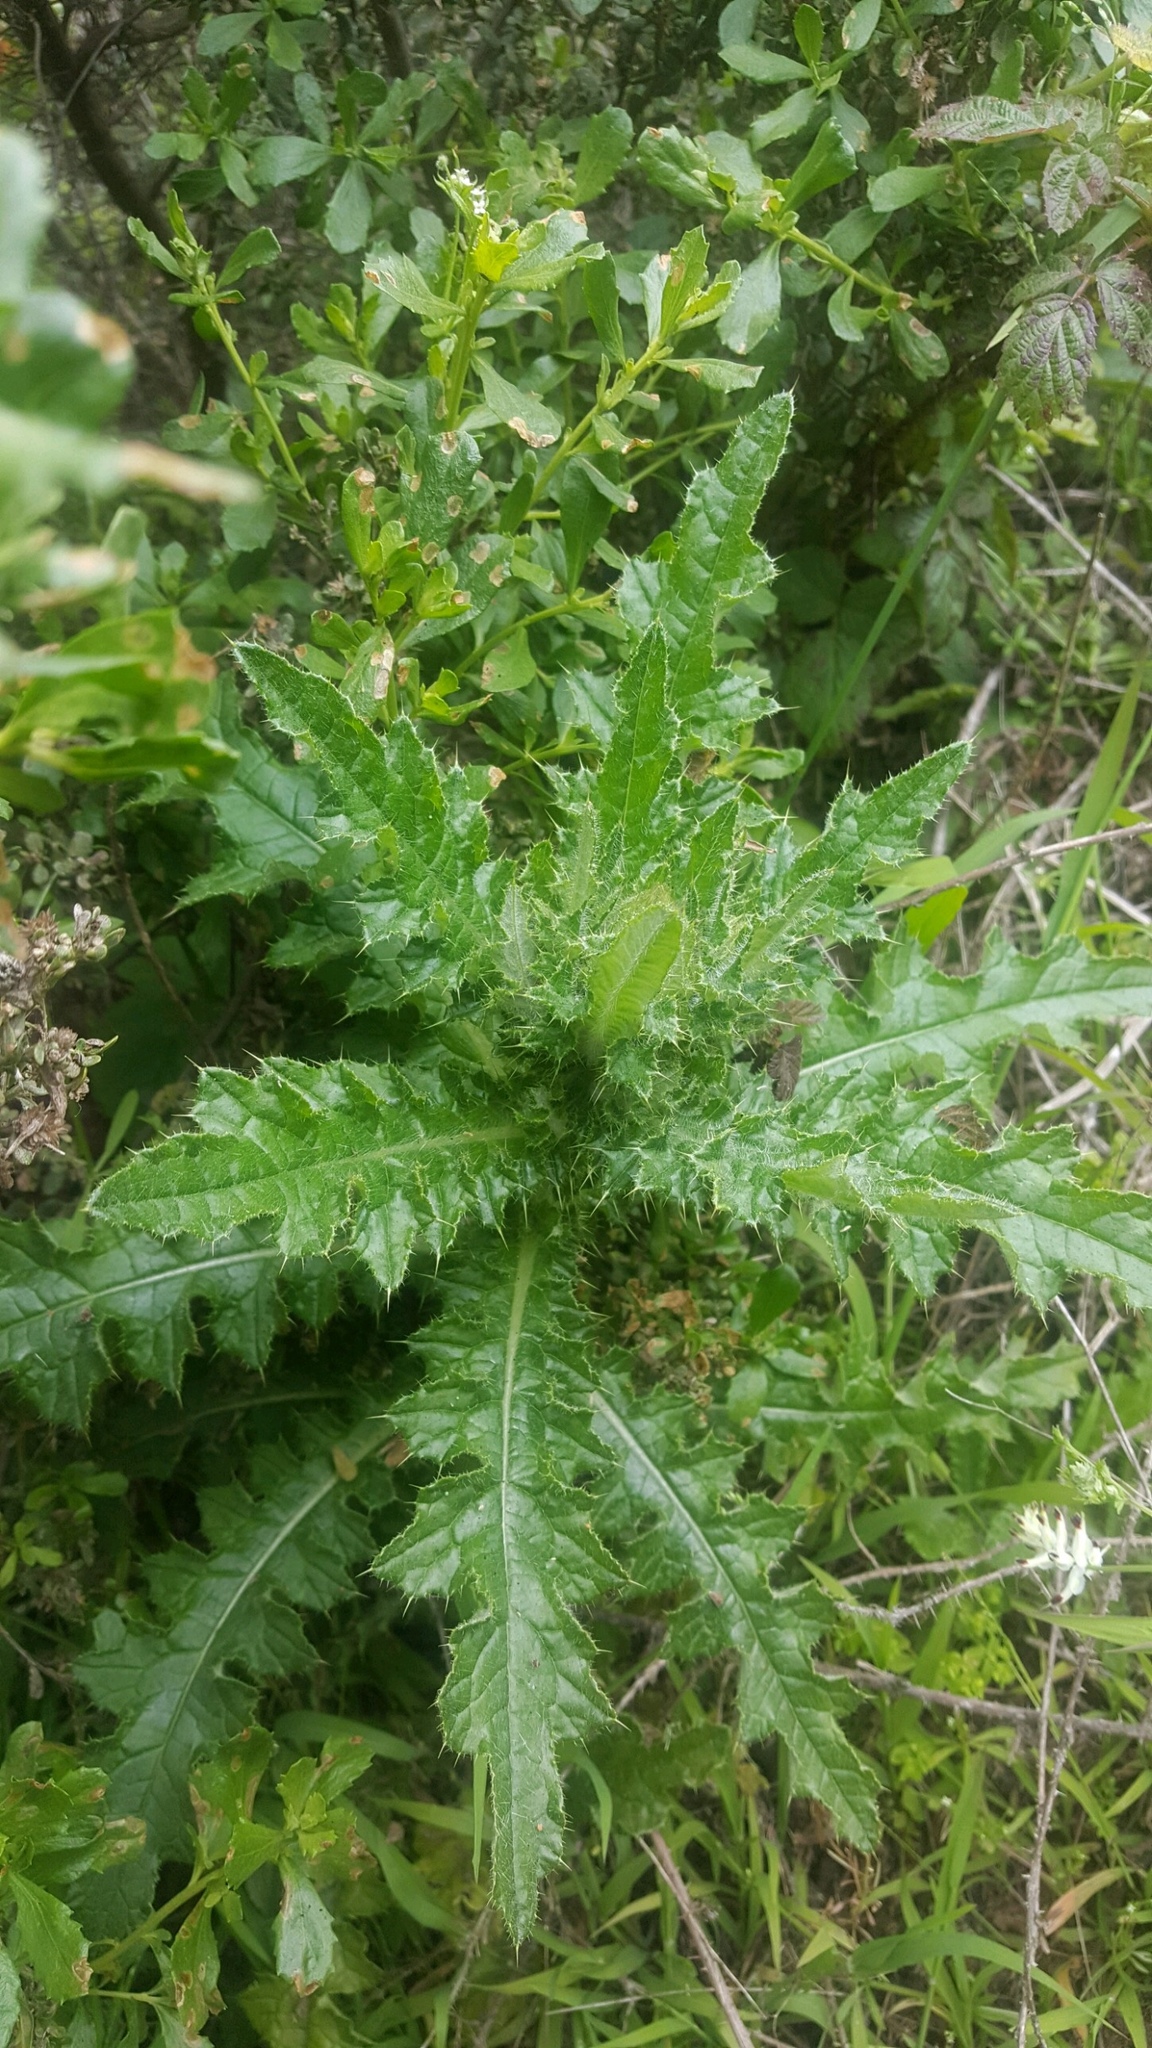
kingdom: Plantae
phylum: Tracheophyta
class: Magnoliopsida
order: Asterales
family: Asteraceae
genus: Cirsium
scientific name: Cirsium brevistylum
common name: Indian thistle
